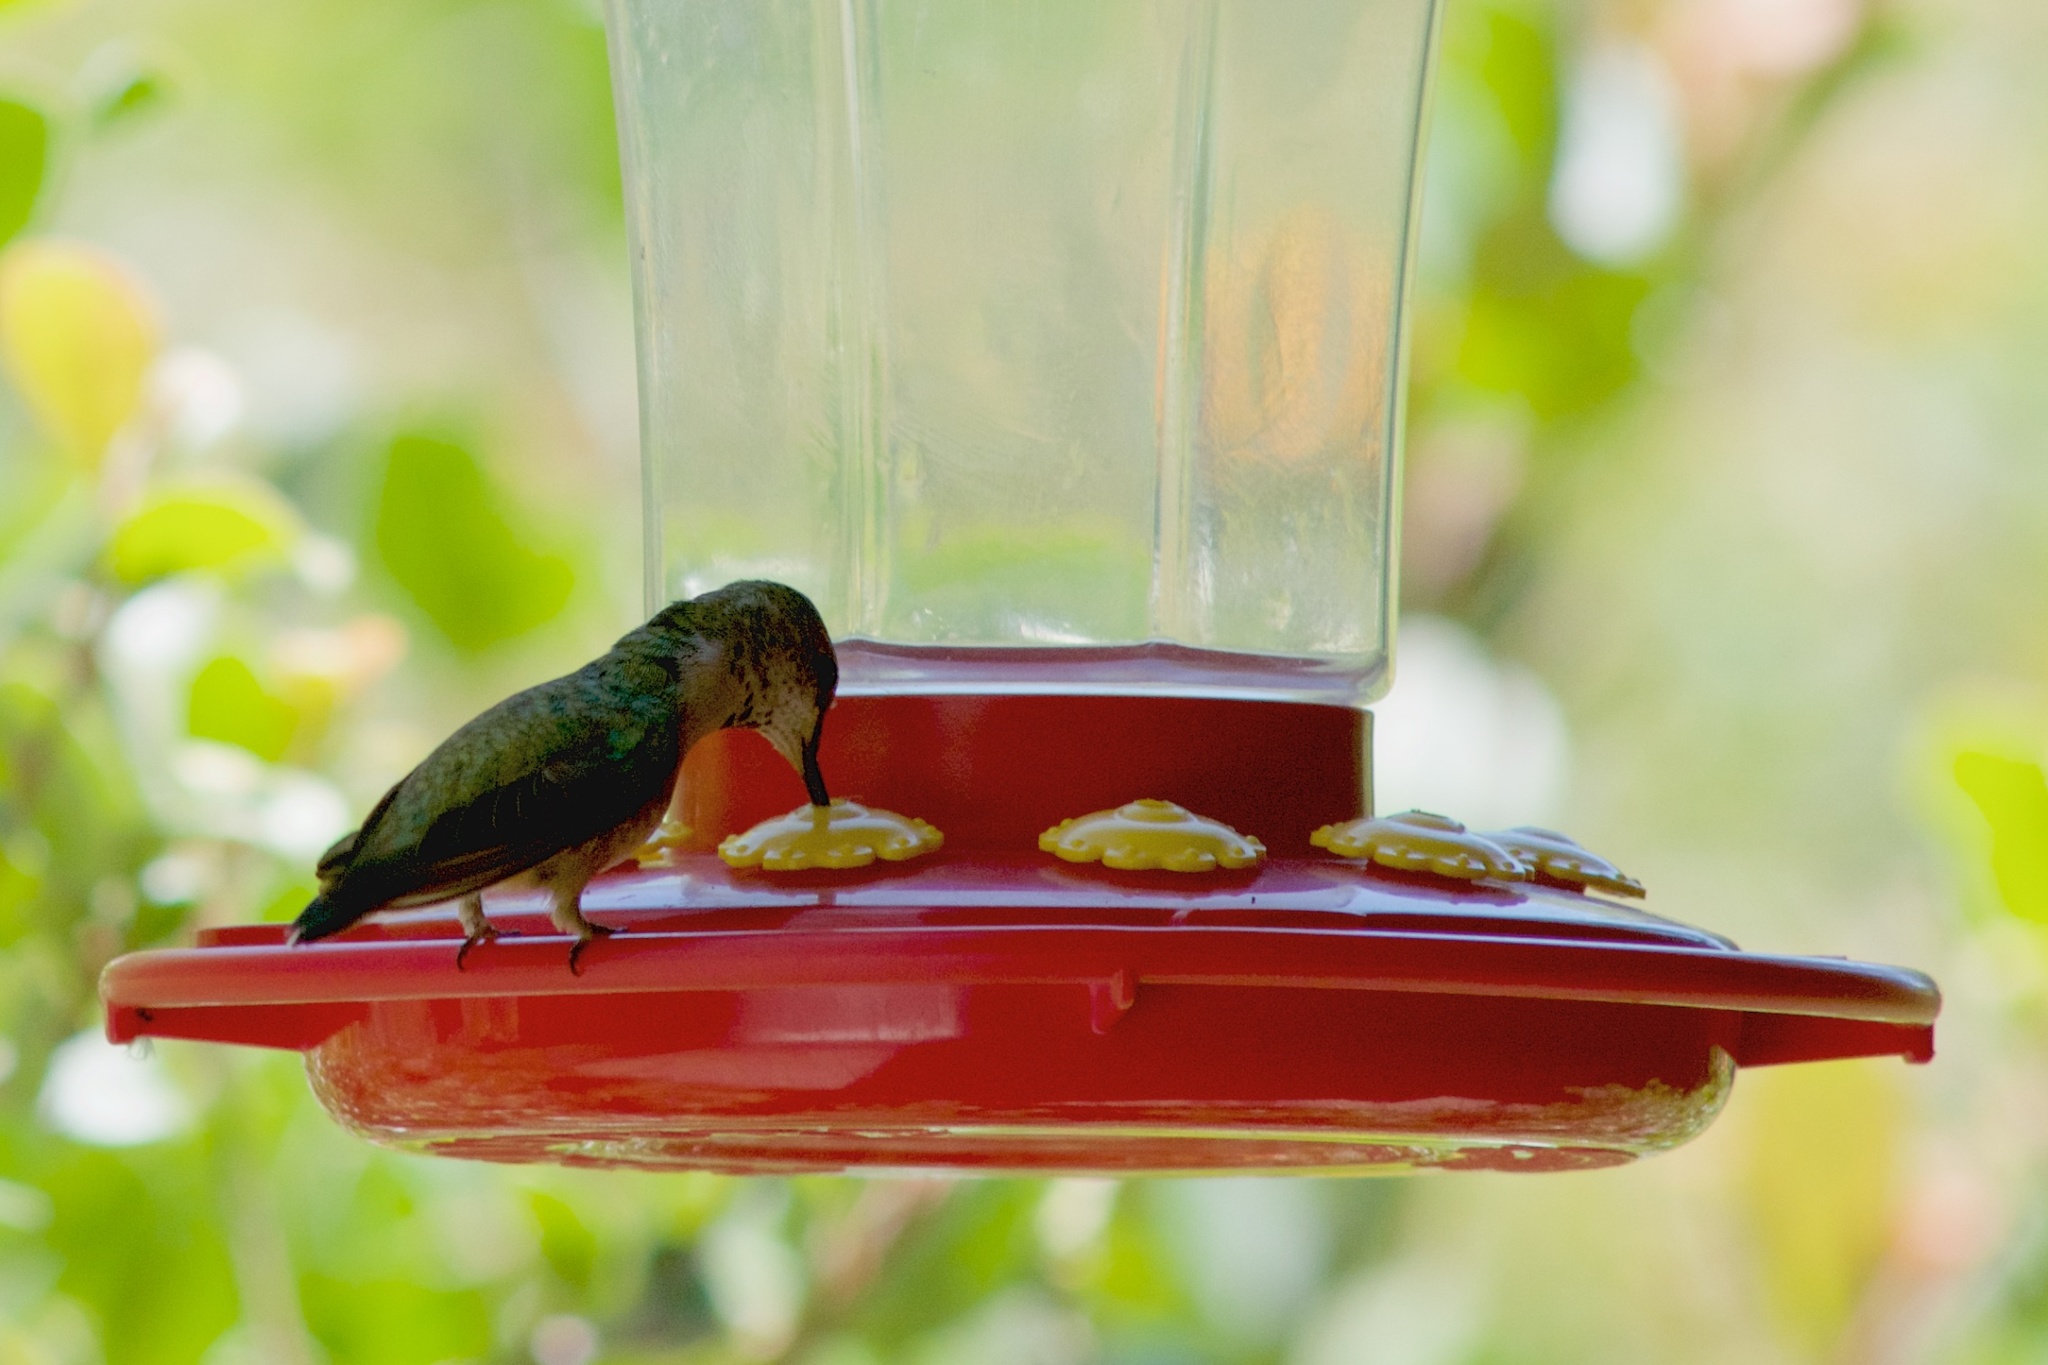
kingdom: Animalia
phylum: Chordata
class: Aves
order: Apodiformes
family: Trochilidae
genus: Selasphorus
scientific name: Selasphorus
